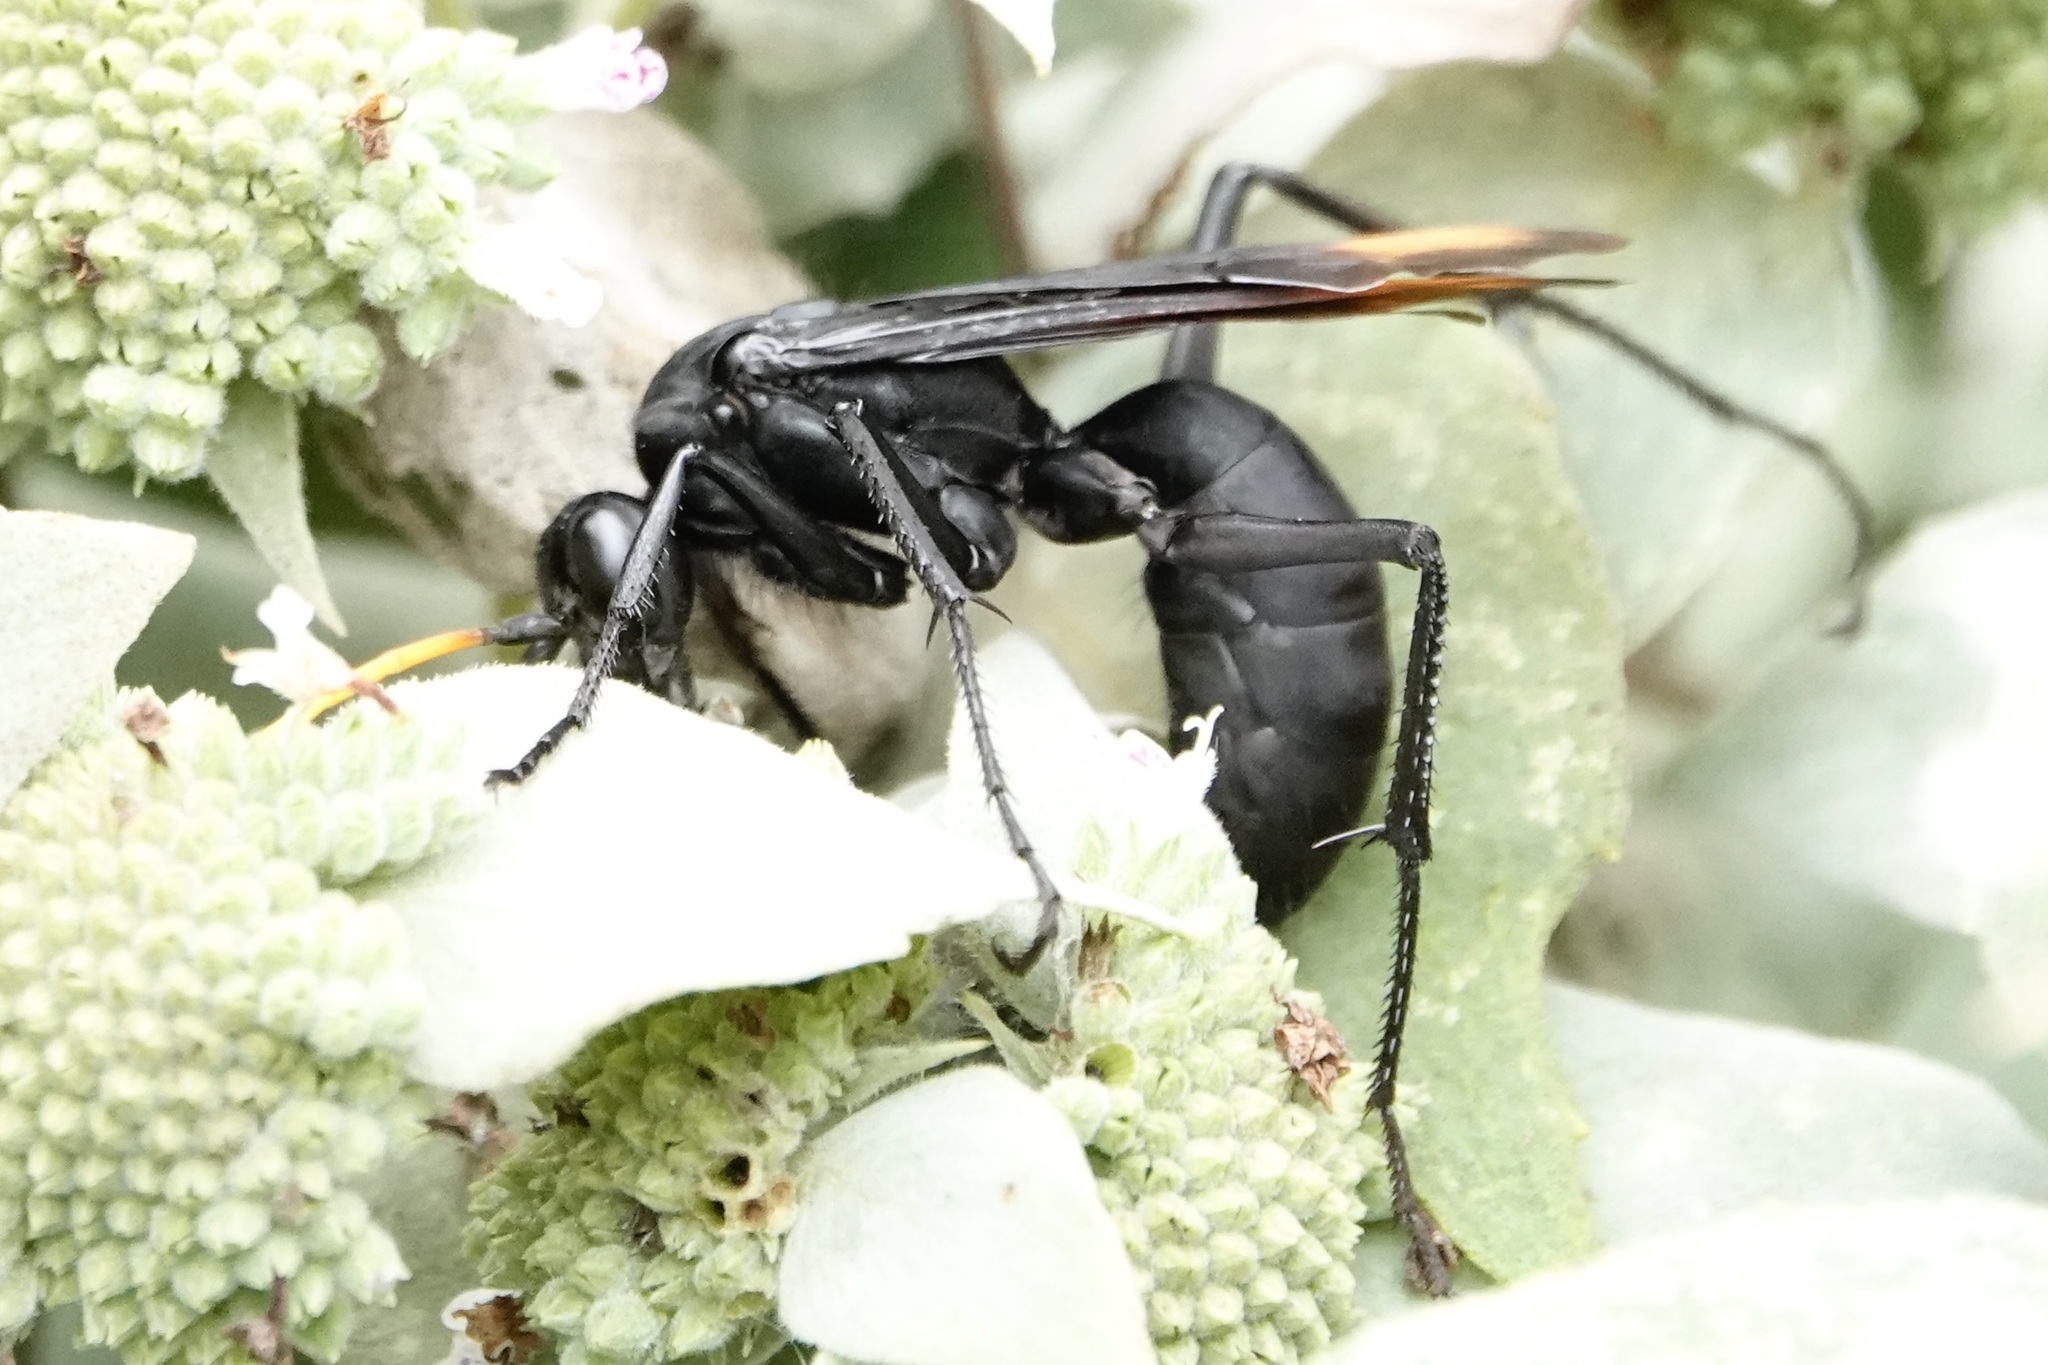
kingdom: Animalia
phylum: Arthropoda
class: Insecta
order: Hymenoptera
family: Pompilidae
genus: Entypus
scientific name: Entypus unifasciatus
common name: Eastern tawny-horned spider wasp
